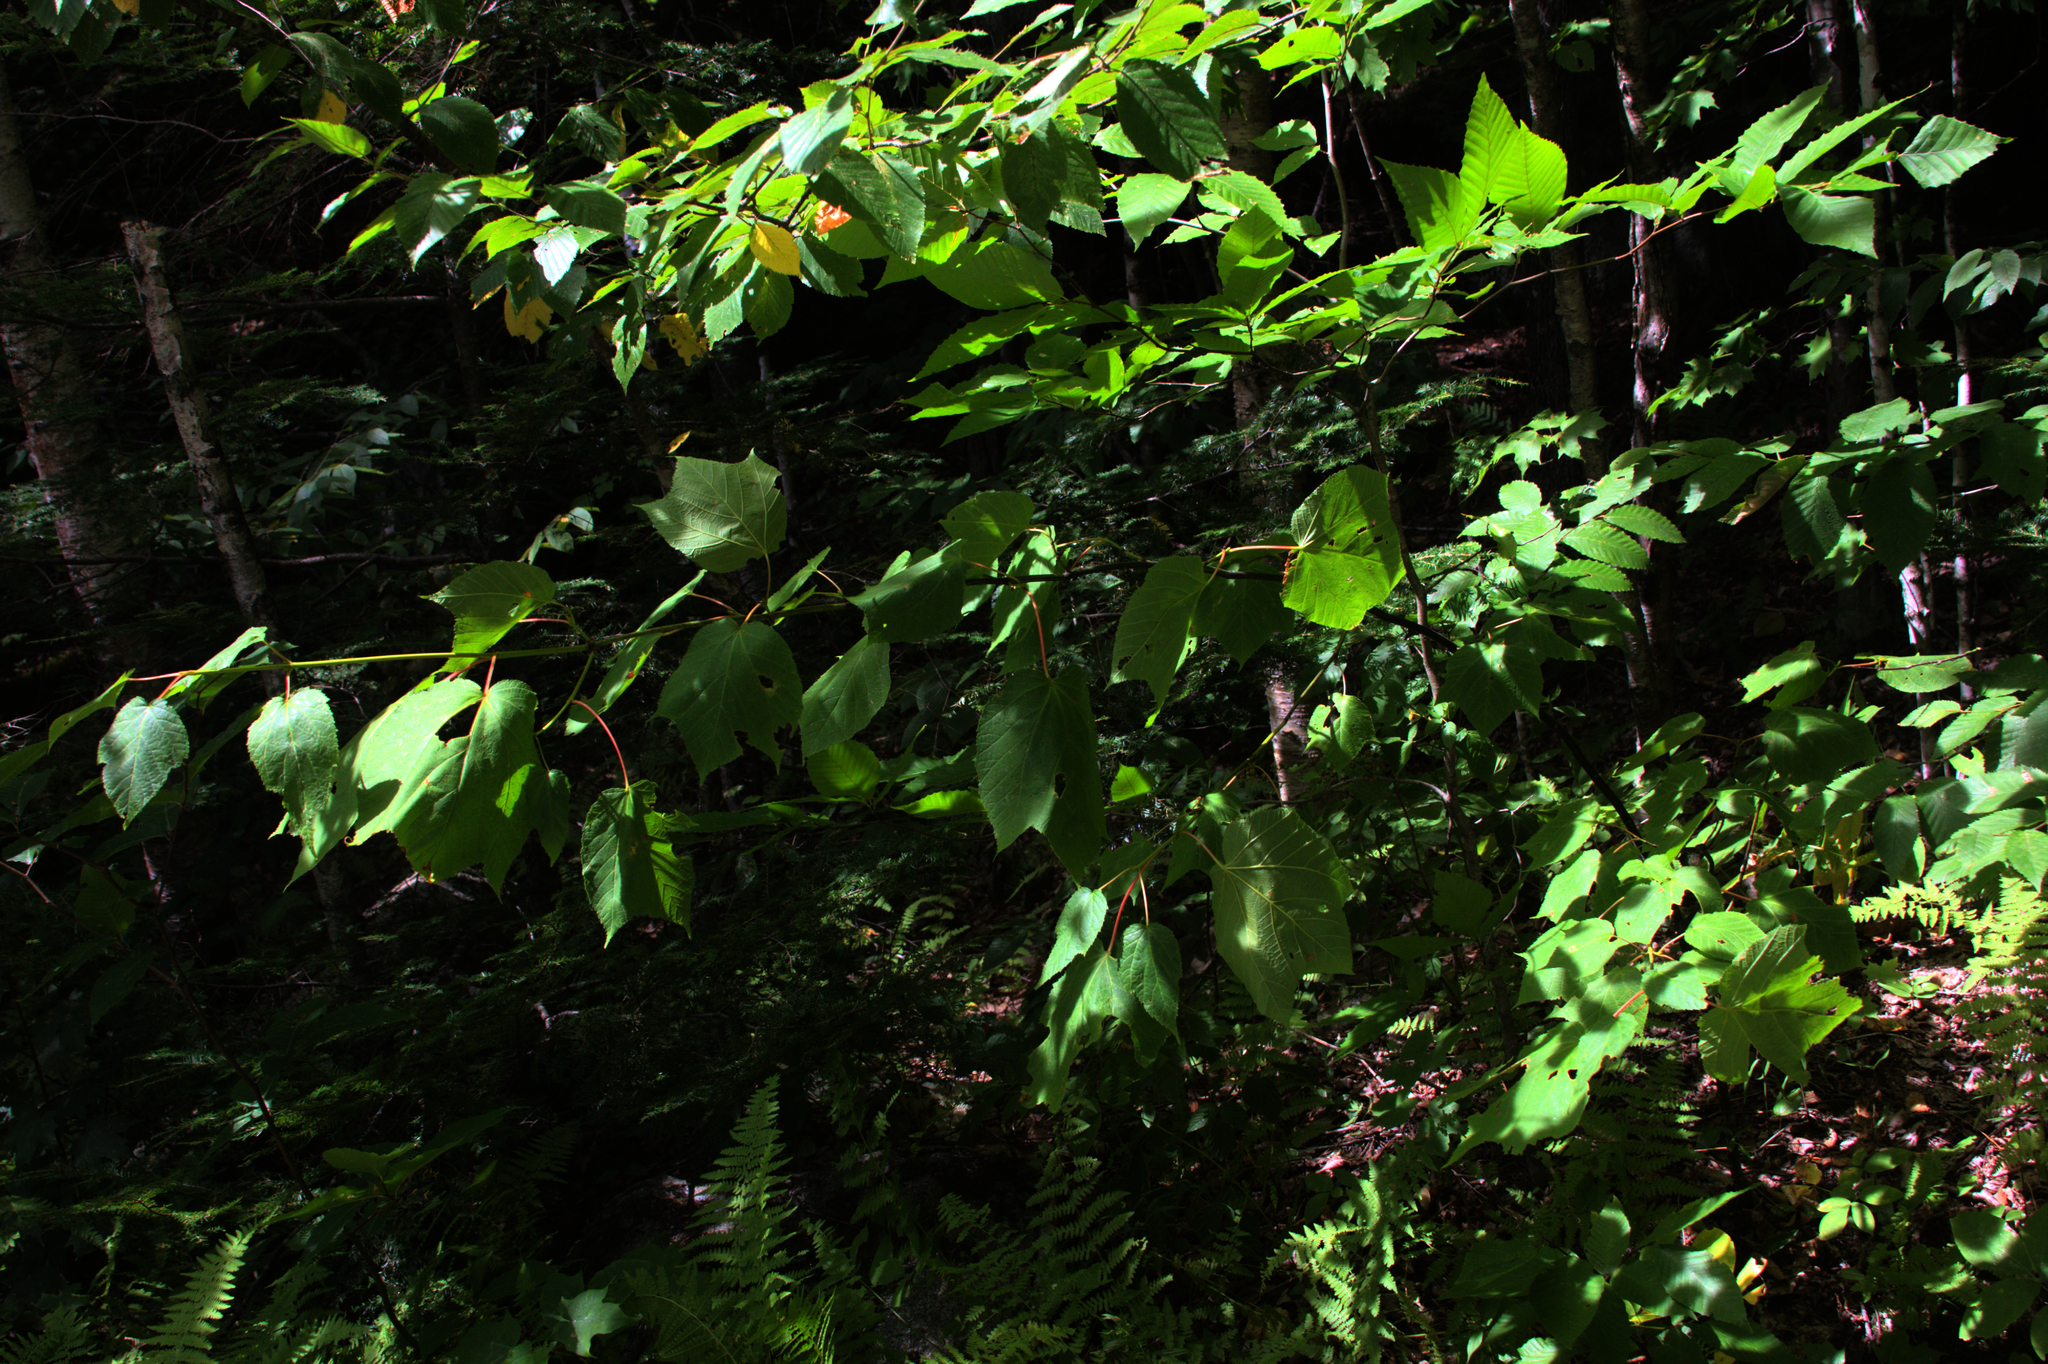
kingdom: Plantae
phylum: Tracheophyta
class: Magnoliopsida
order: Sapindales
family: Sapindaceae
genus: Acer
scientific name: Acer pensylvanicum
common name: Moosewood
